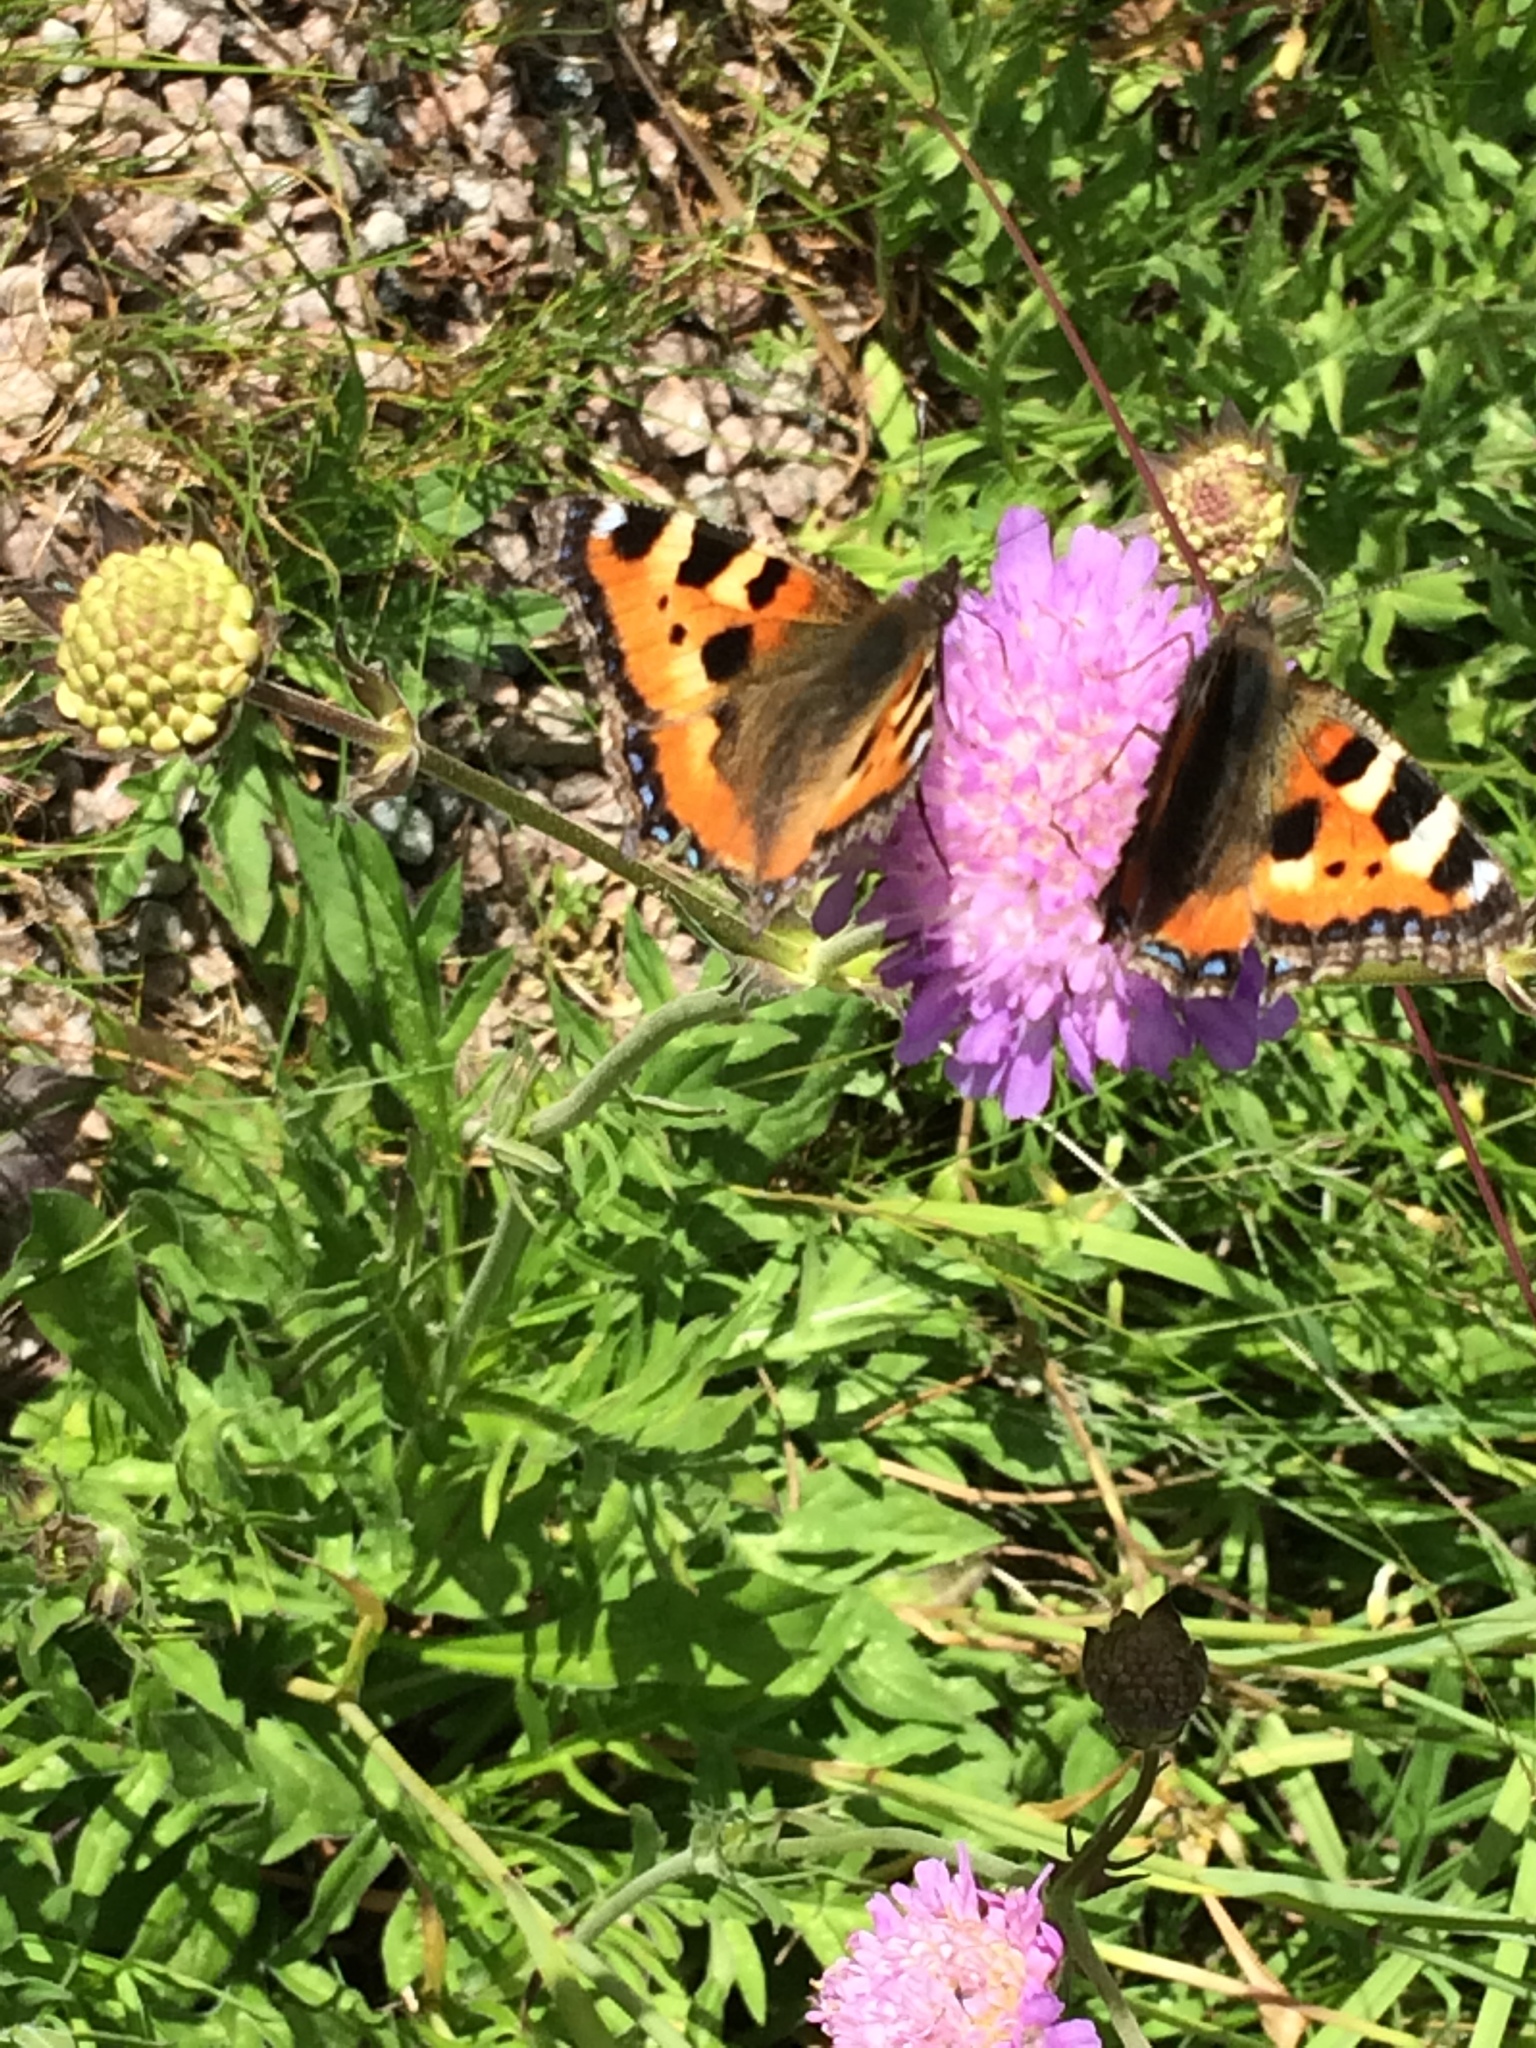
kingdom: Animalia
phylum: Arthropoda
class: Insecta
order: Lepidoptera
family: Nymphalidae
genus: Aglais
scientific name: Aglais urticae
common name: Small tortoiseshell
